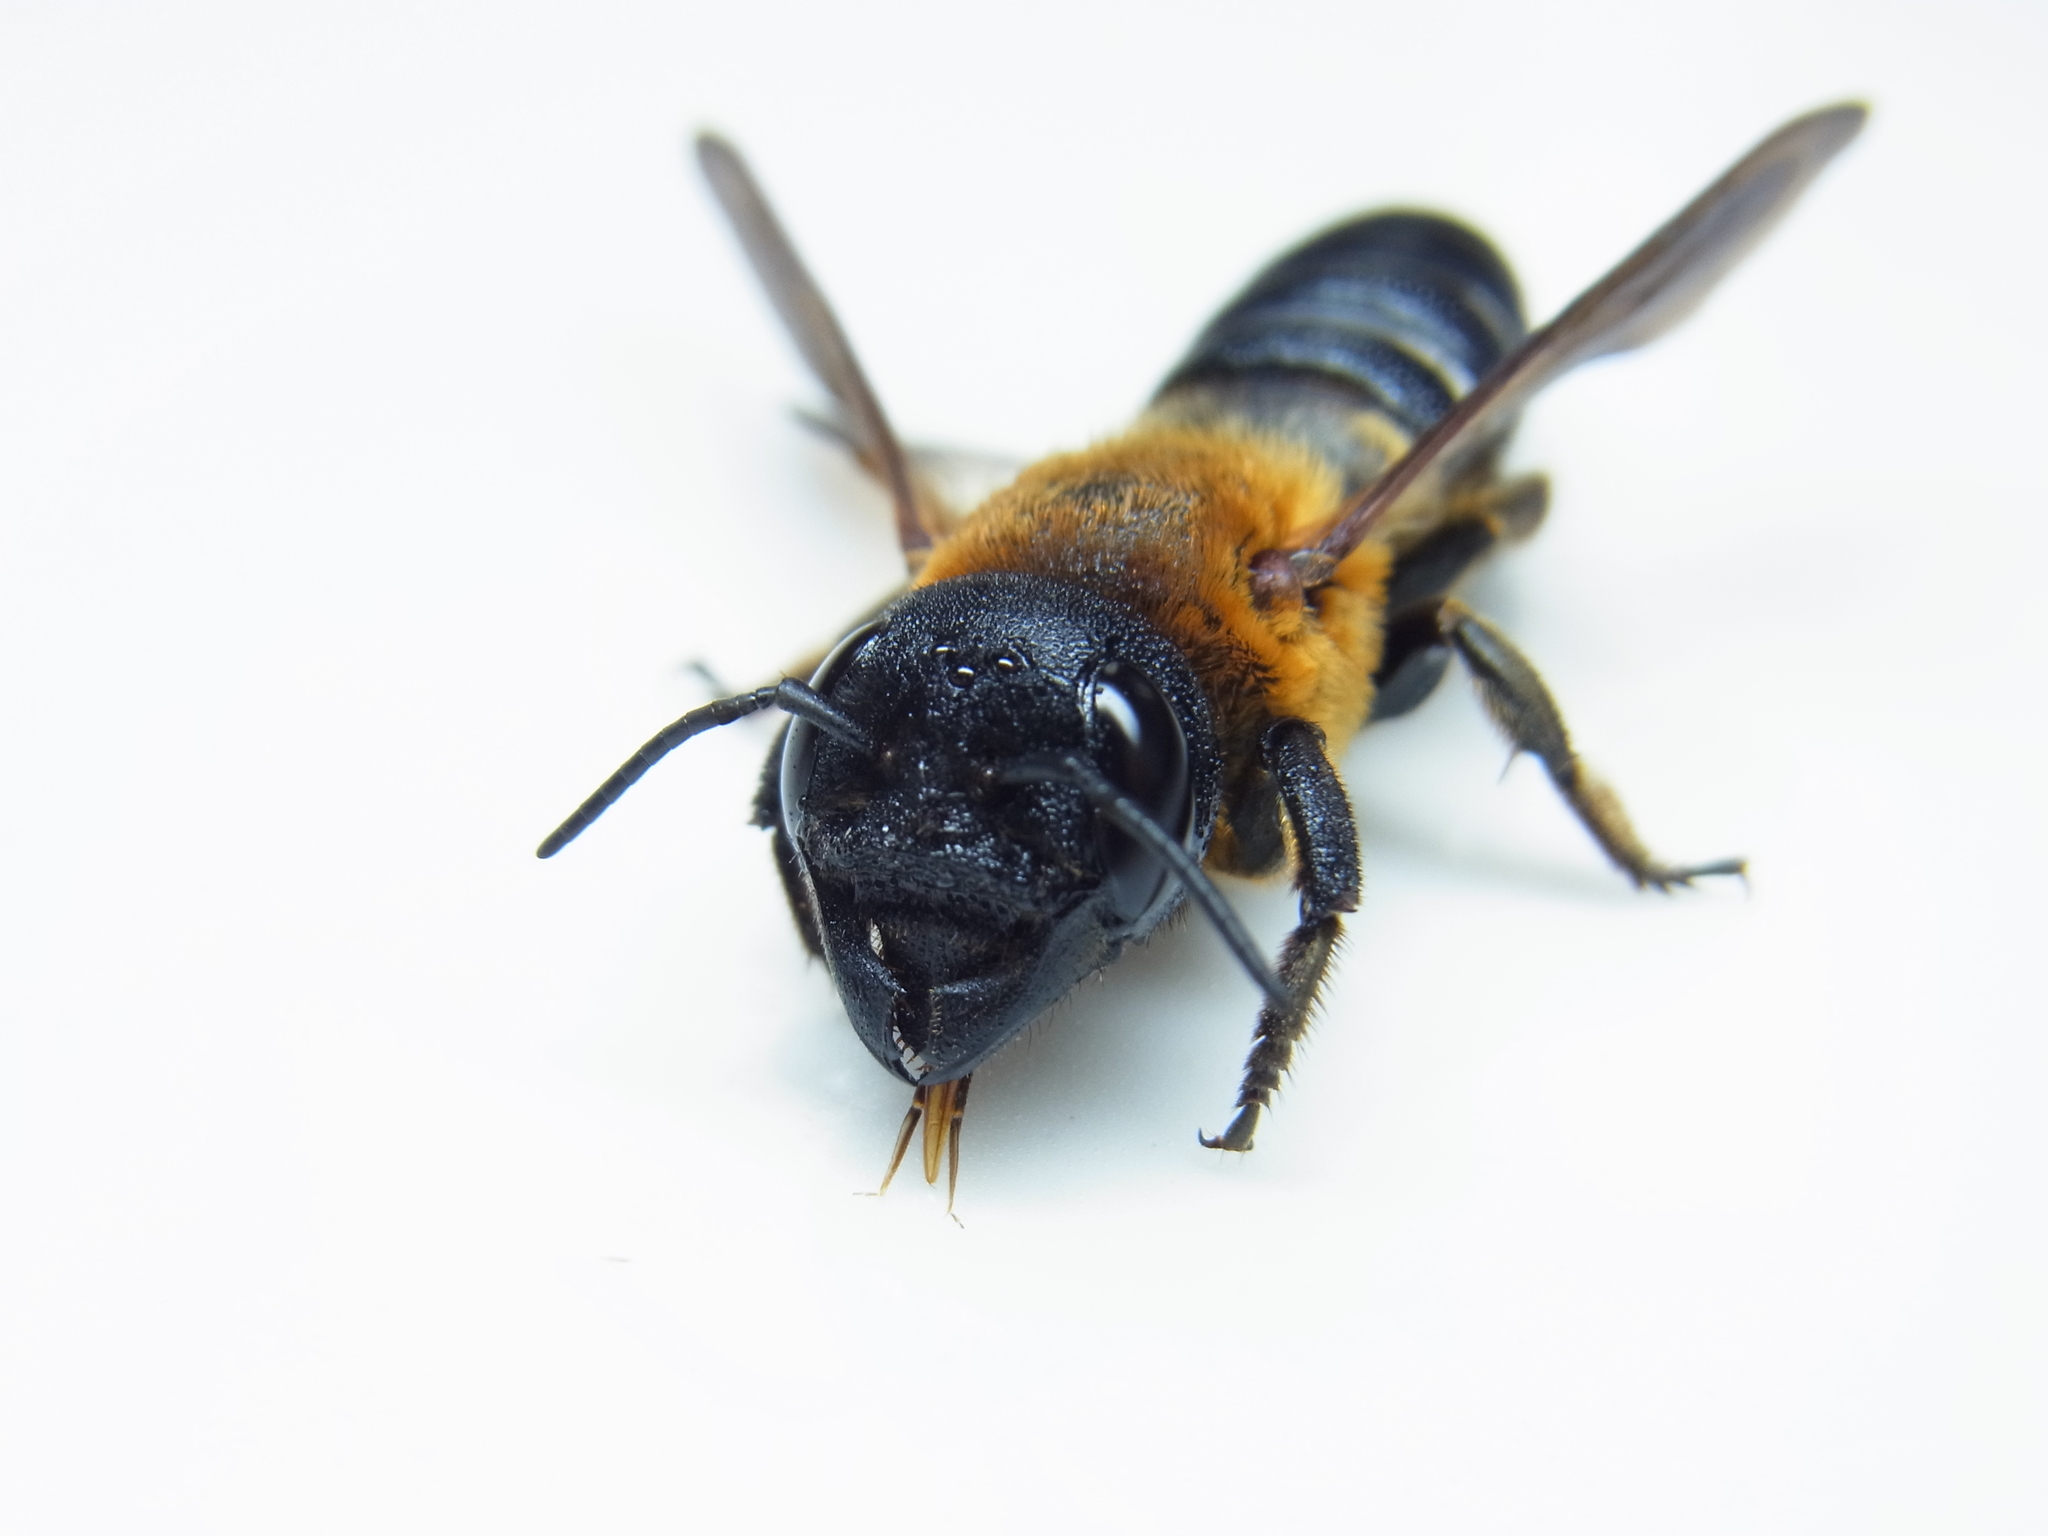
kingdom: Animalia
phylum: Arthropoda
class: Insecta
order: Hymenoptera
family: Megachilidae
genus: Megachile
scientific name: Megachile sculpturalis
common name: Sculptured resin bee
